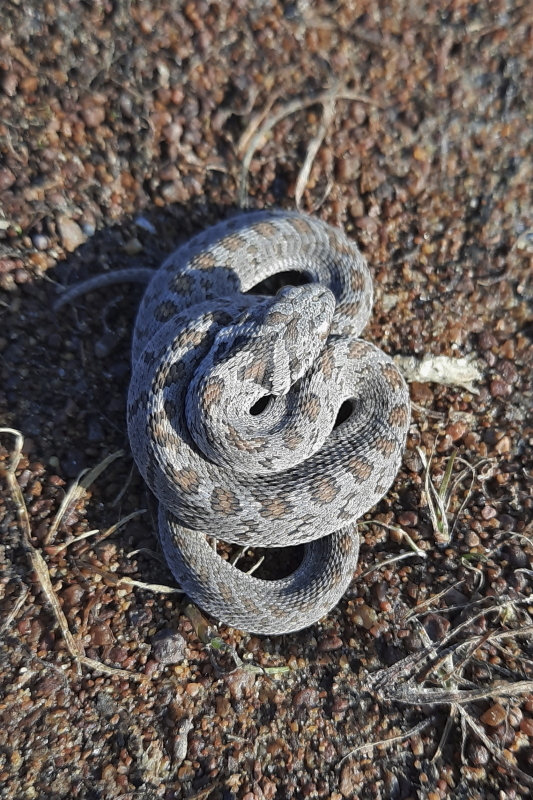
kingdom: Animalia
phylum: Chordata
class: Squamata
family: Colubridae
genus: Dasypeltis
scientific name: Dasypeltis scabra
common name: Common egg eater
